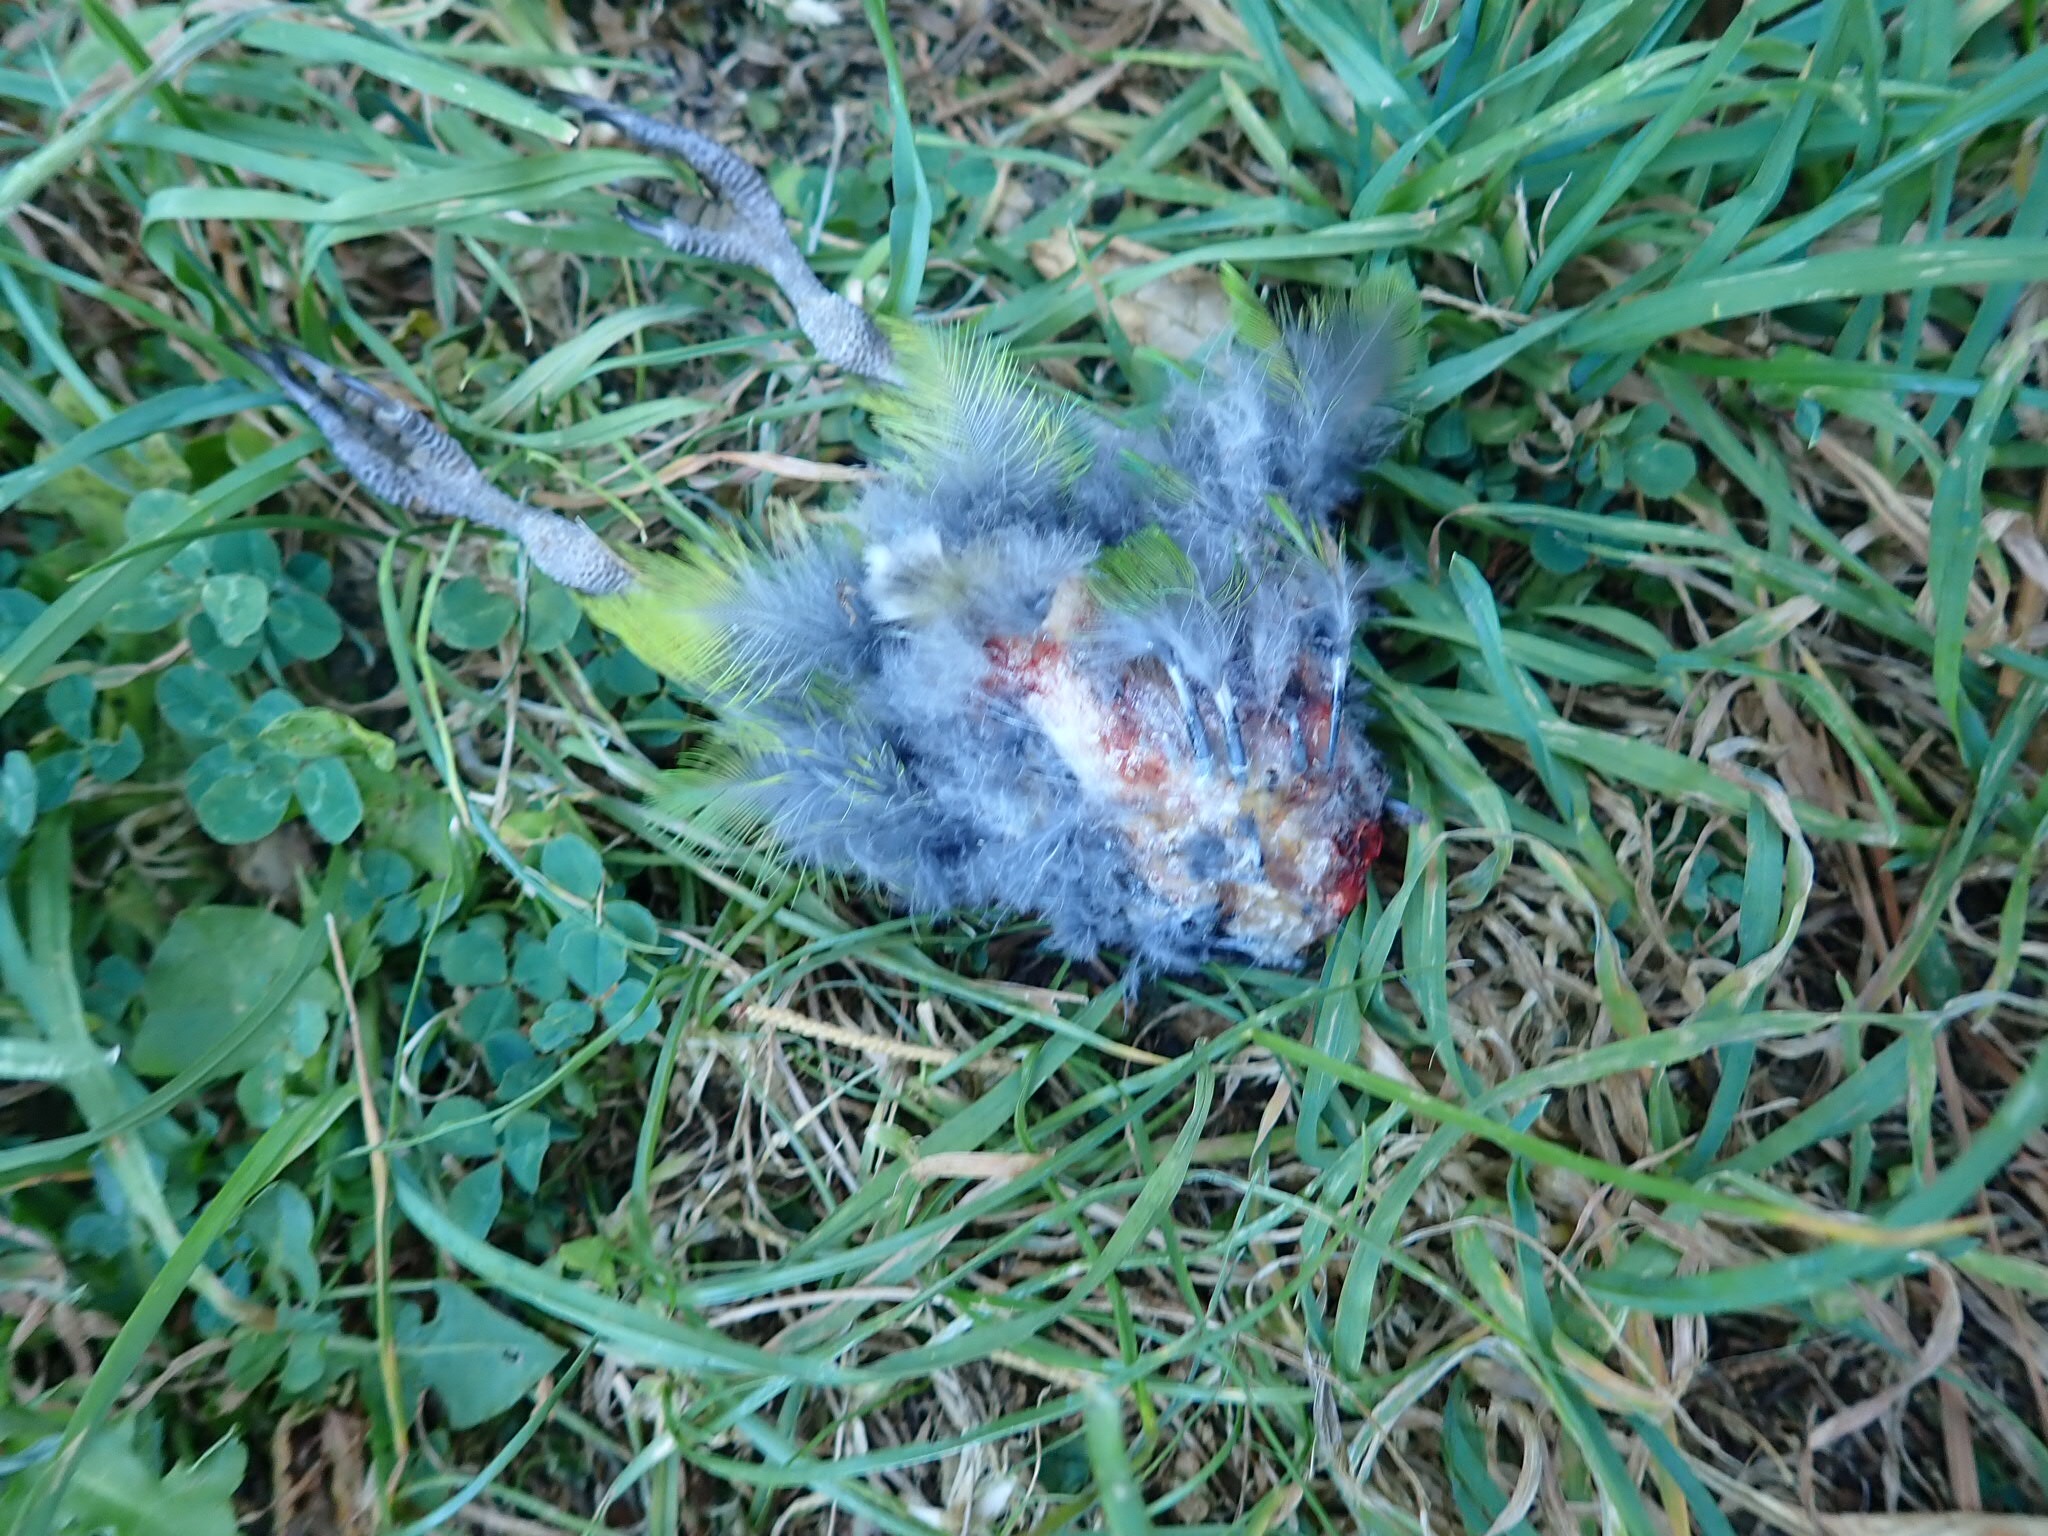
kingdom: Animalia
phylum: Chordata
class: Aves
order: Psittaciformes
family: Psittacidae
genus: Cyanoramphus
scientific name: Cyanoramphus novaezelandiae
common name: Red-fronted parakeet
